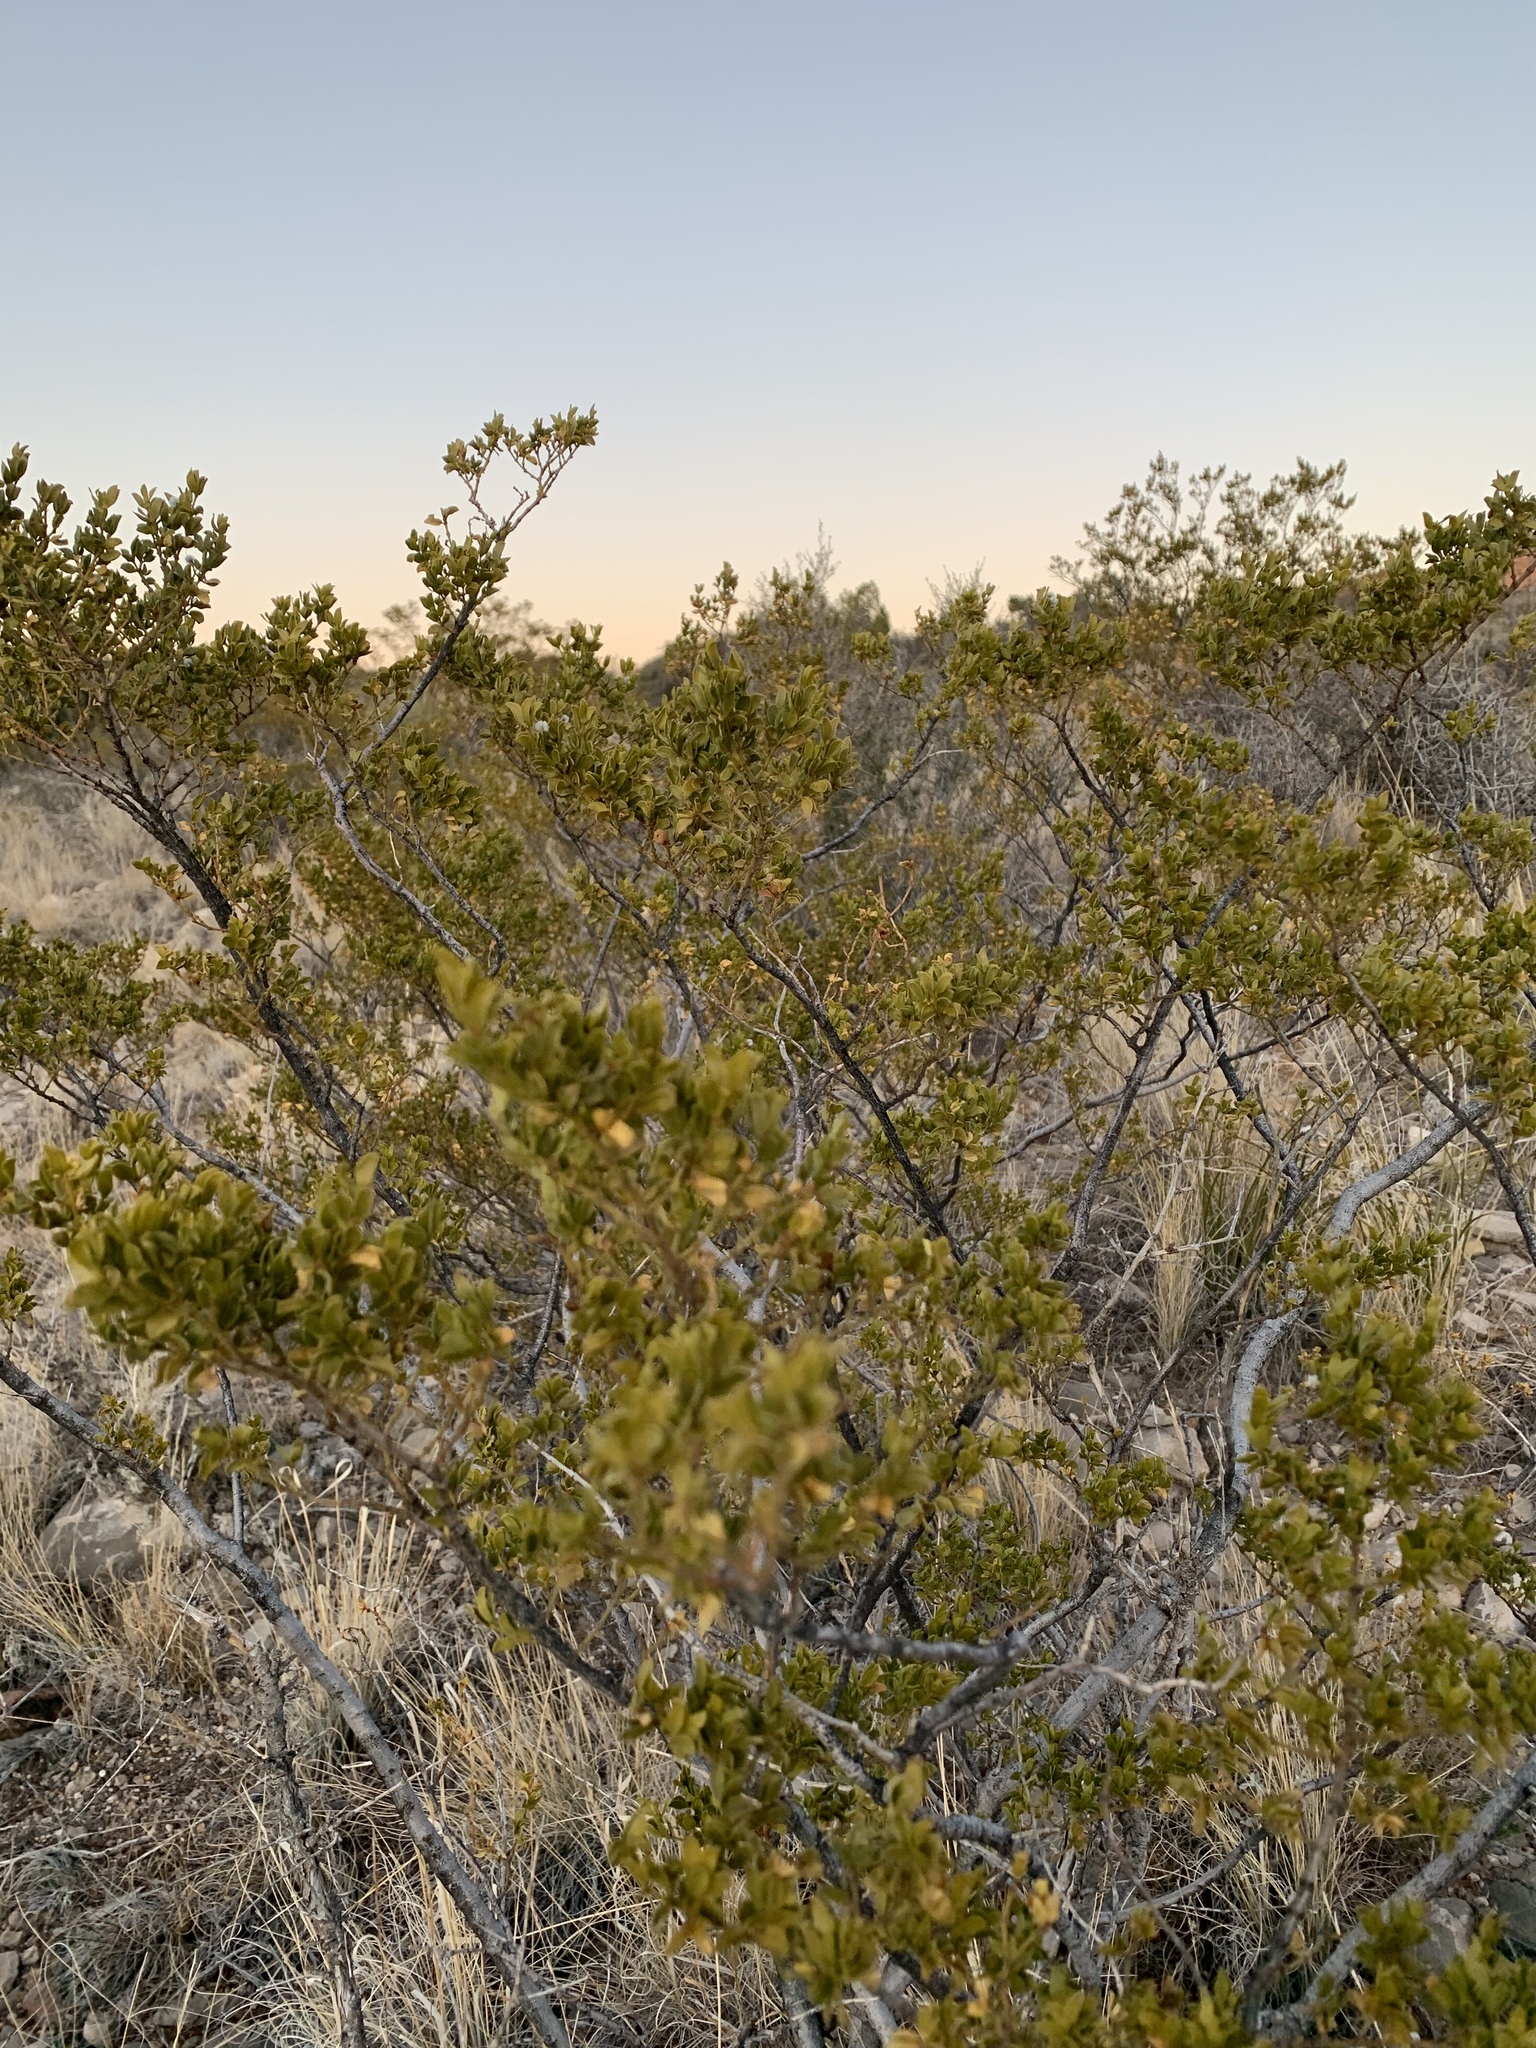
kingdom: Plantae
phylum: Tracheophyta
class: Magnoliopsida
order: Zygophyllales
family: Zygophyllaceae
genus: Larrea
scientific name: Larrea tridentata
